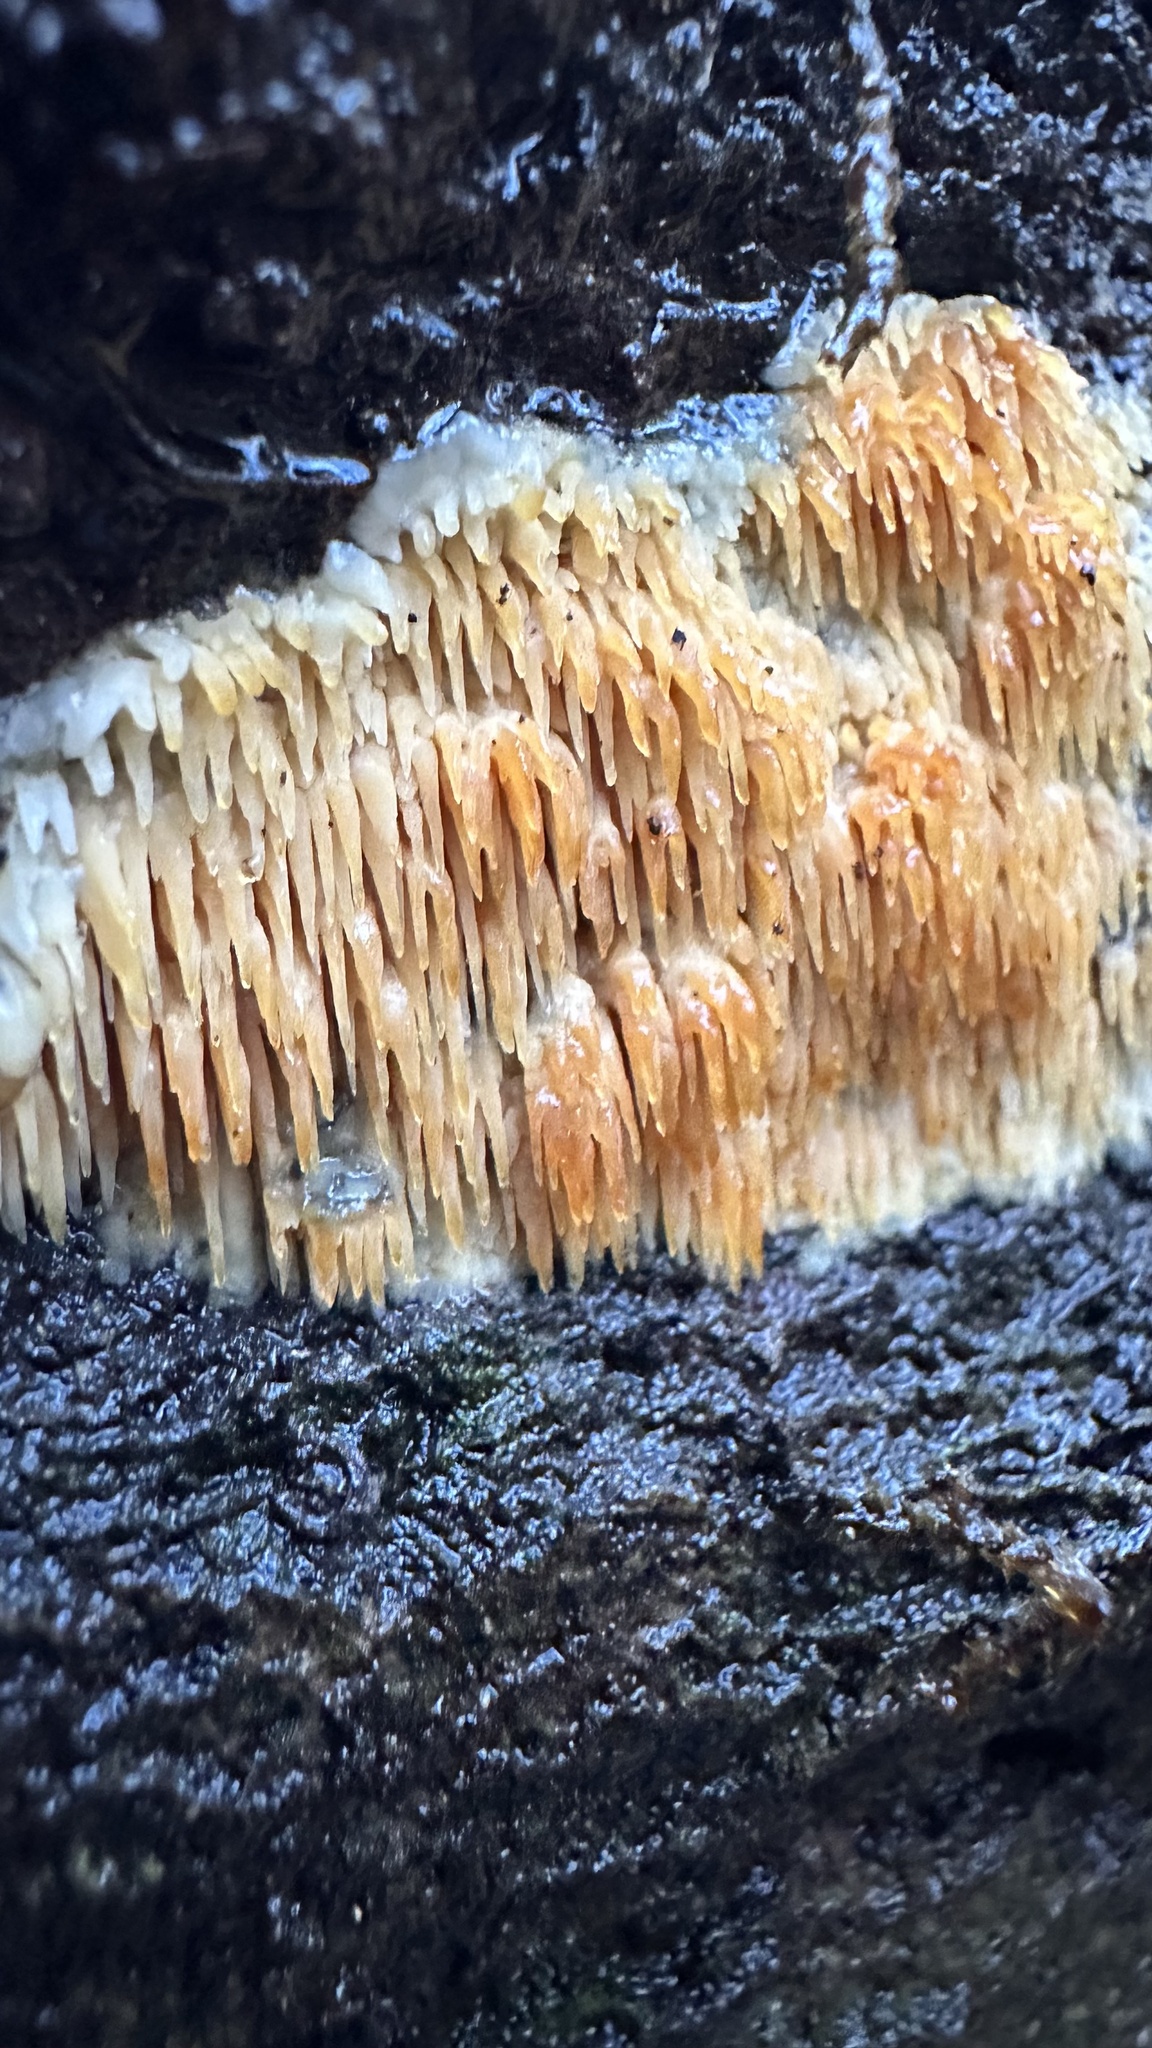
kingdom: Fungi
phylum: Basidiomycota
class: Agaricomycetes
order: Agaricales
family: Radulomycetaceae
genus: Radulomyces
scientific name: Radulomyces copelandii
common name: Asian beauty
